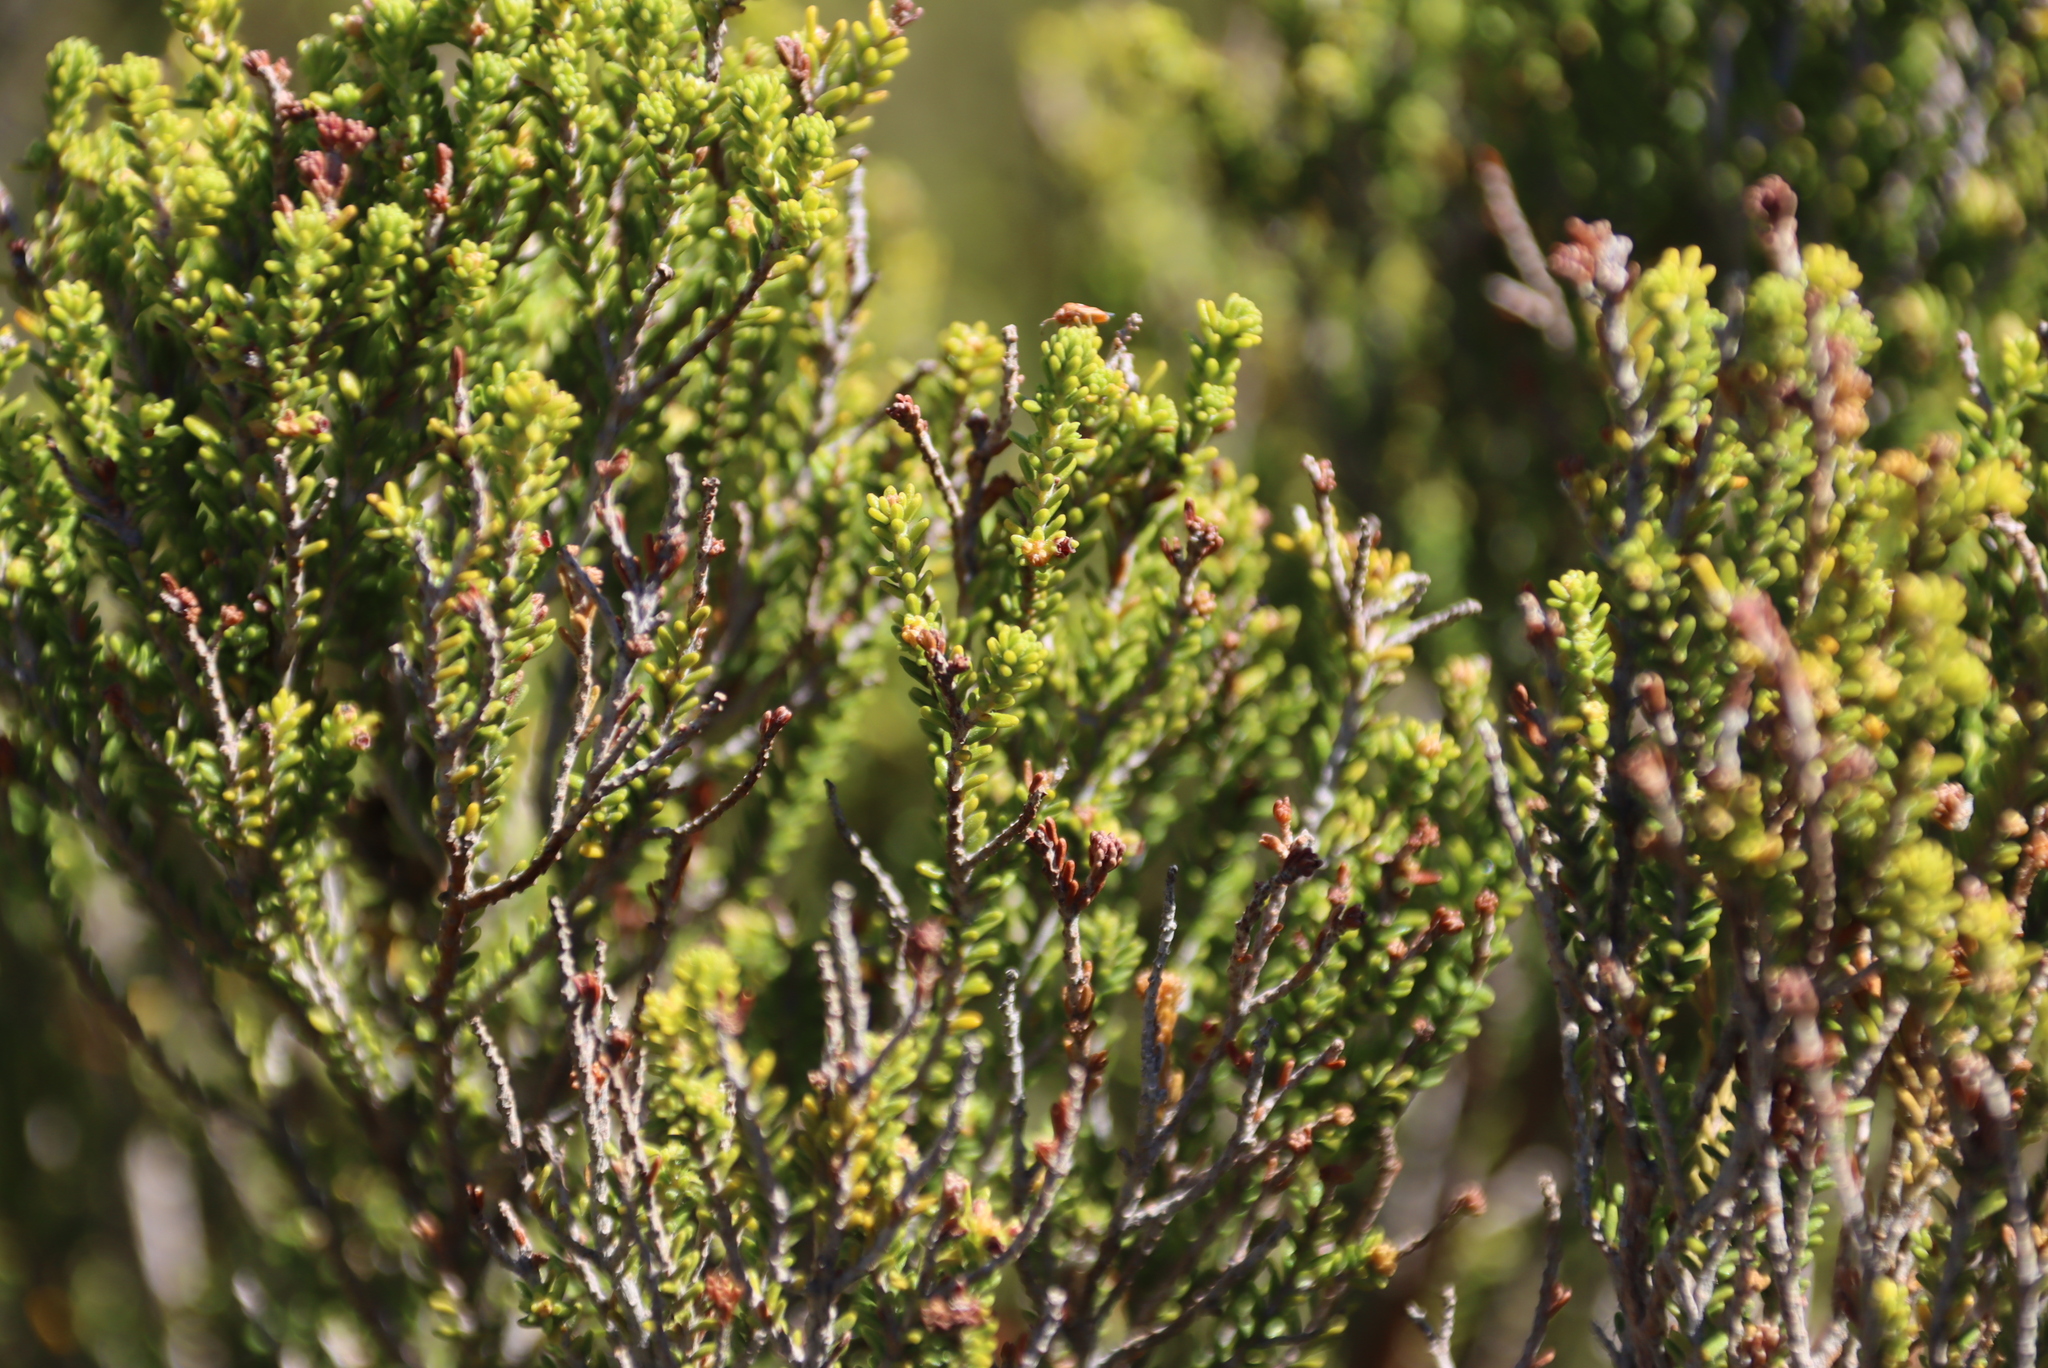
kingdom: Plantae
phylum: Tracheophyta
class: Magnoliopsida
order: Ericales
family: Ericaceae
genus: Erica
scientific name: Erica tristis
